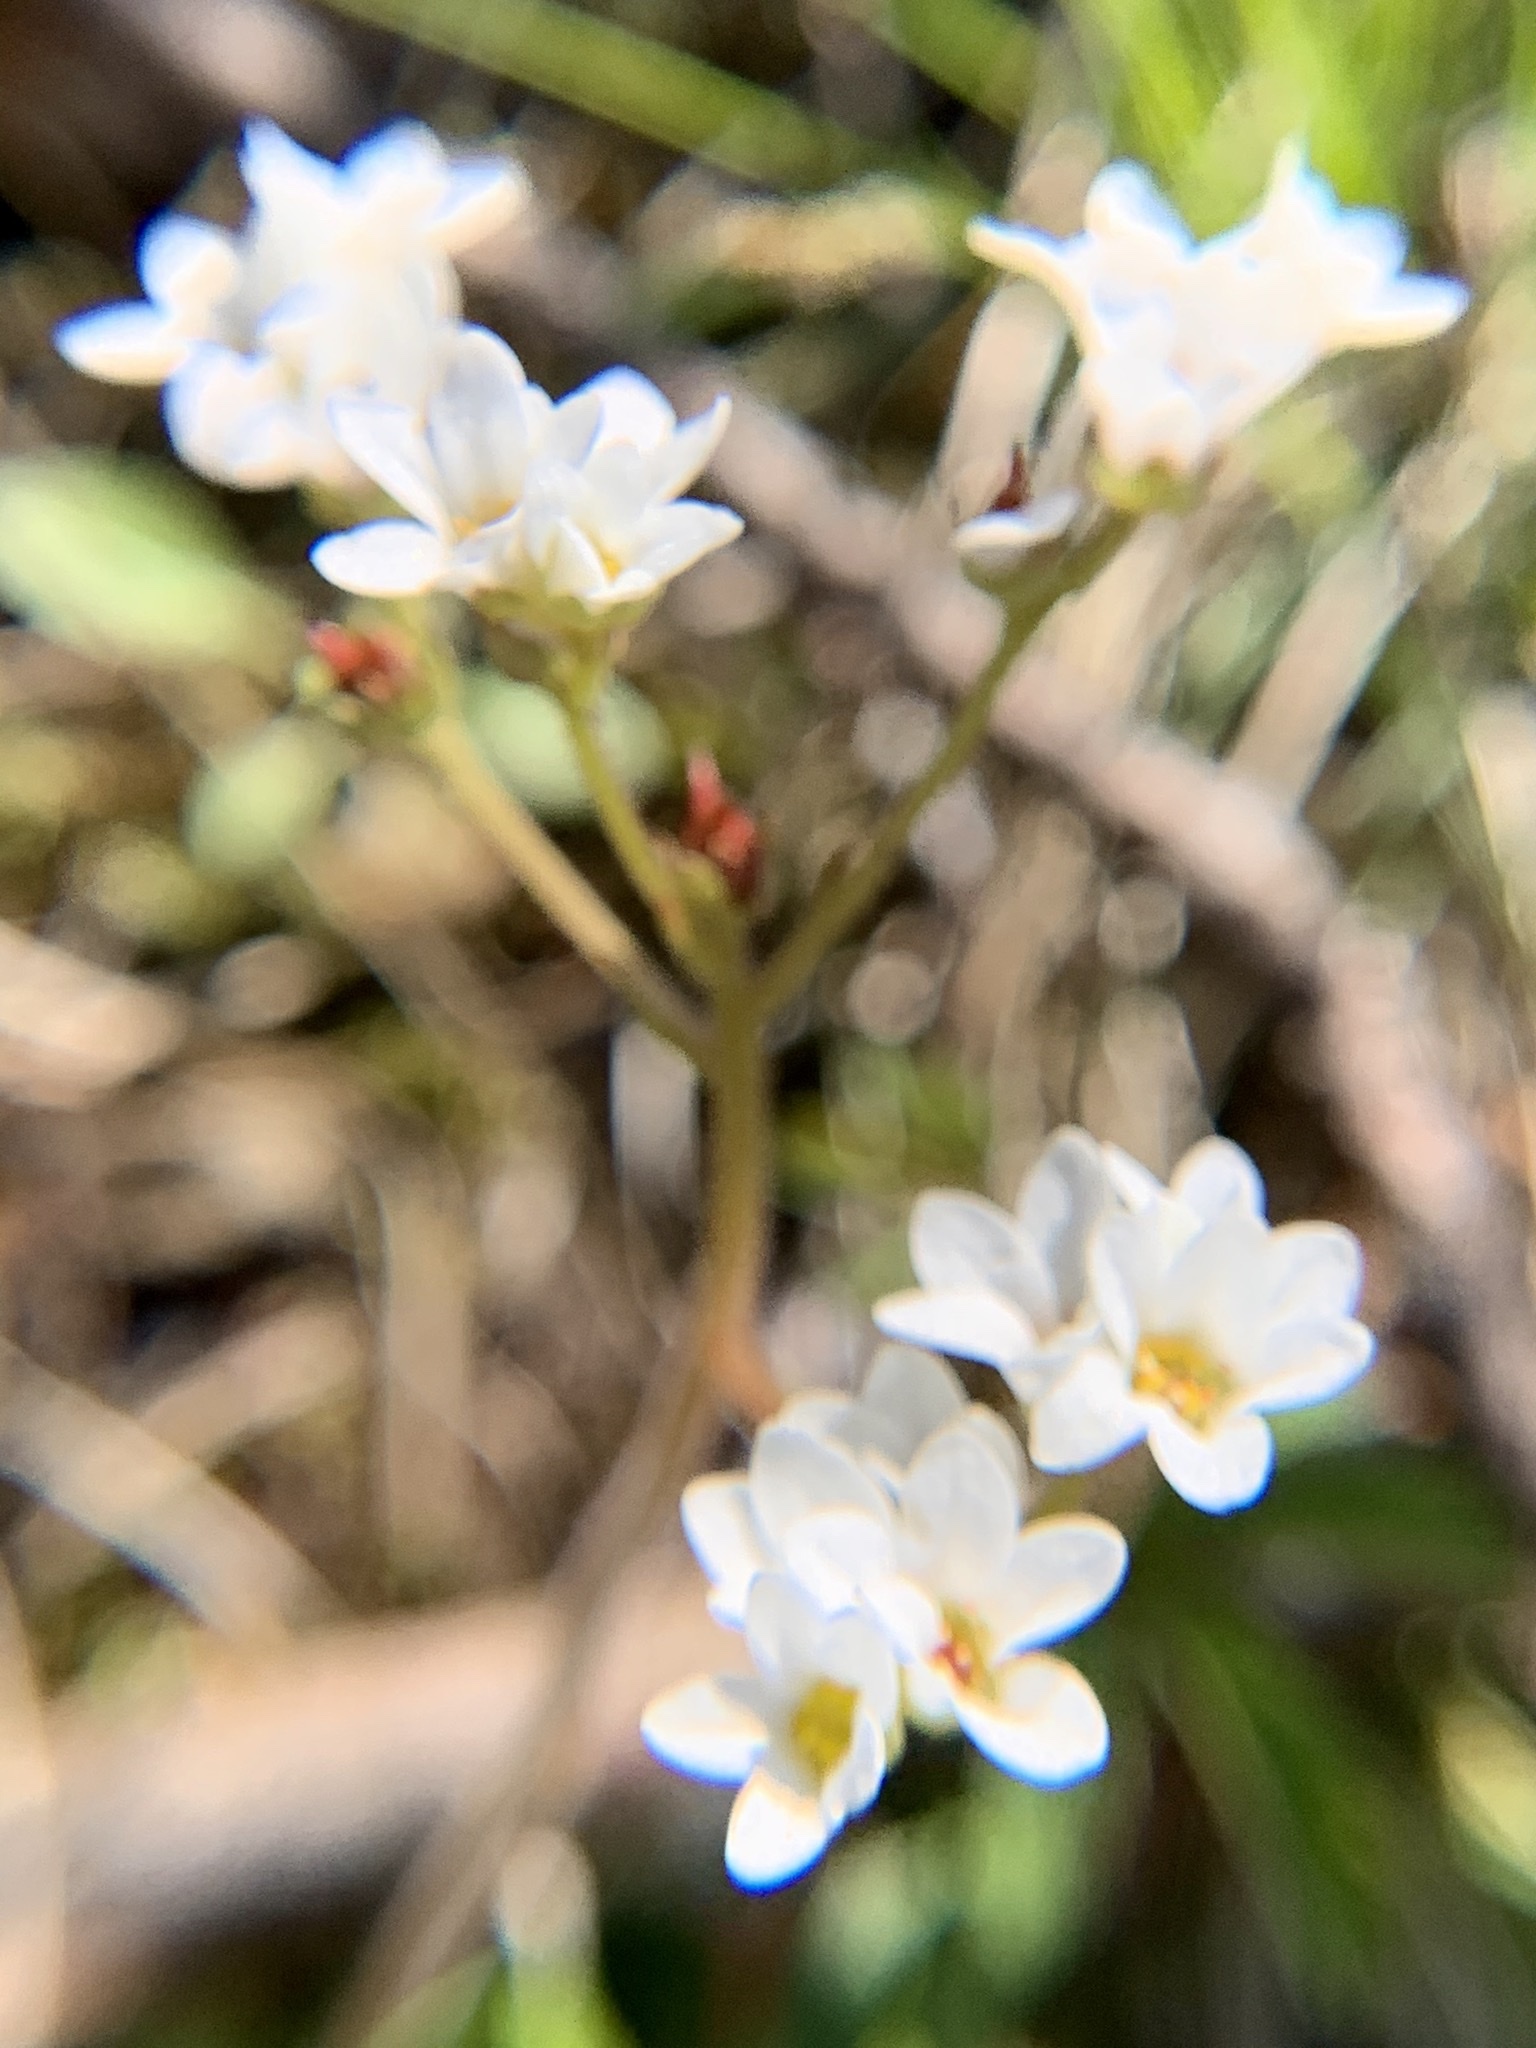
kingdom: Plantae
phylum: Tracheophyta
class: Magnoliopsida
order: Saxifragales
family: Saxifragaceae
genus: Micranthes
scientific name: Micranthes virginiensis
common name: Early saxifrage
